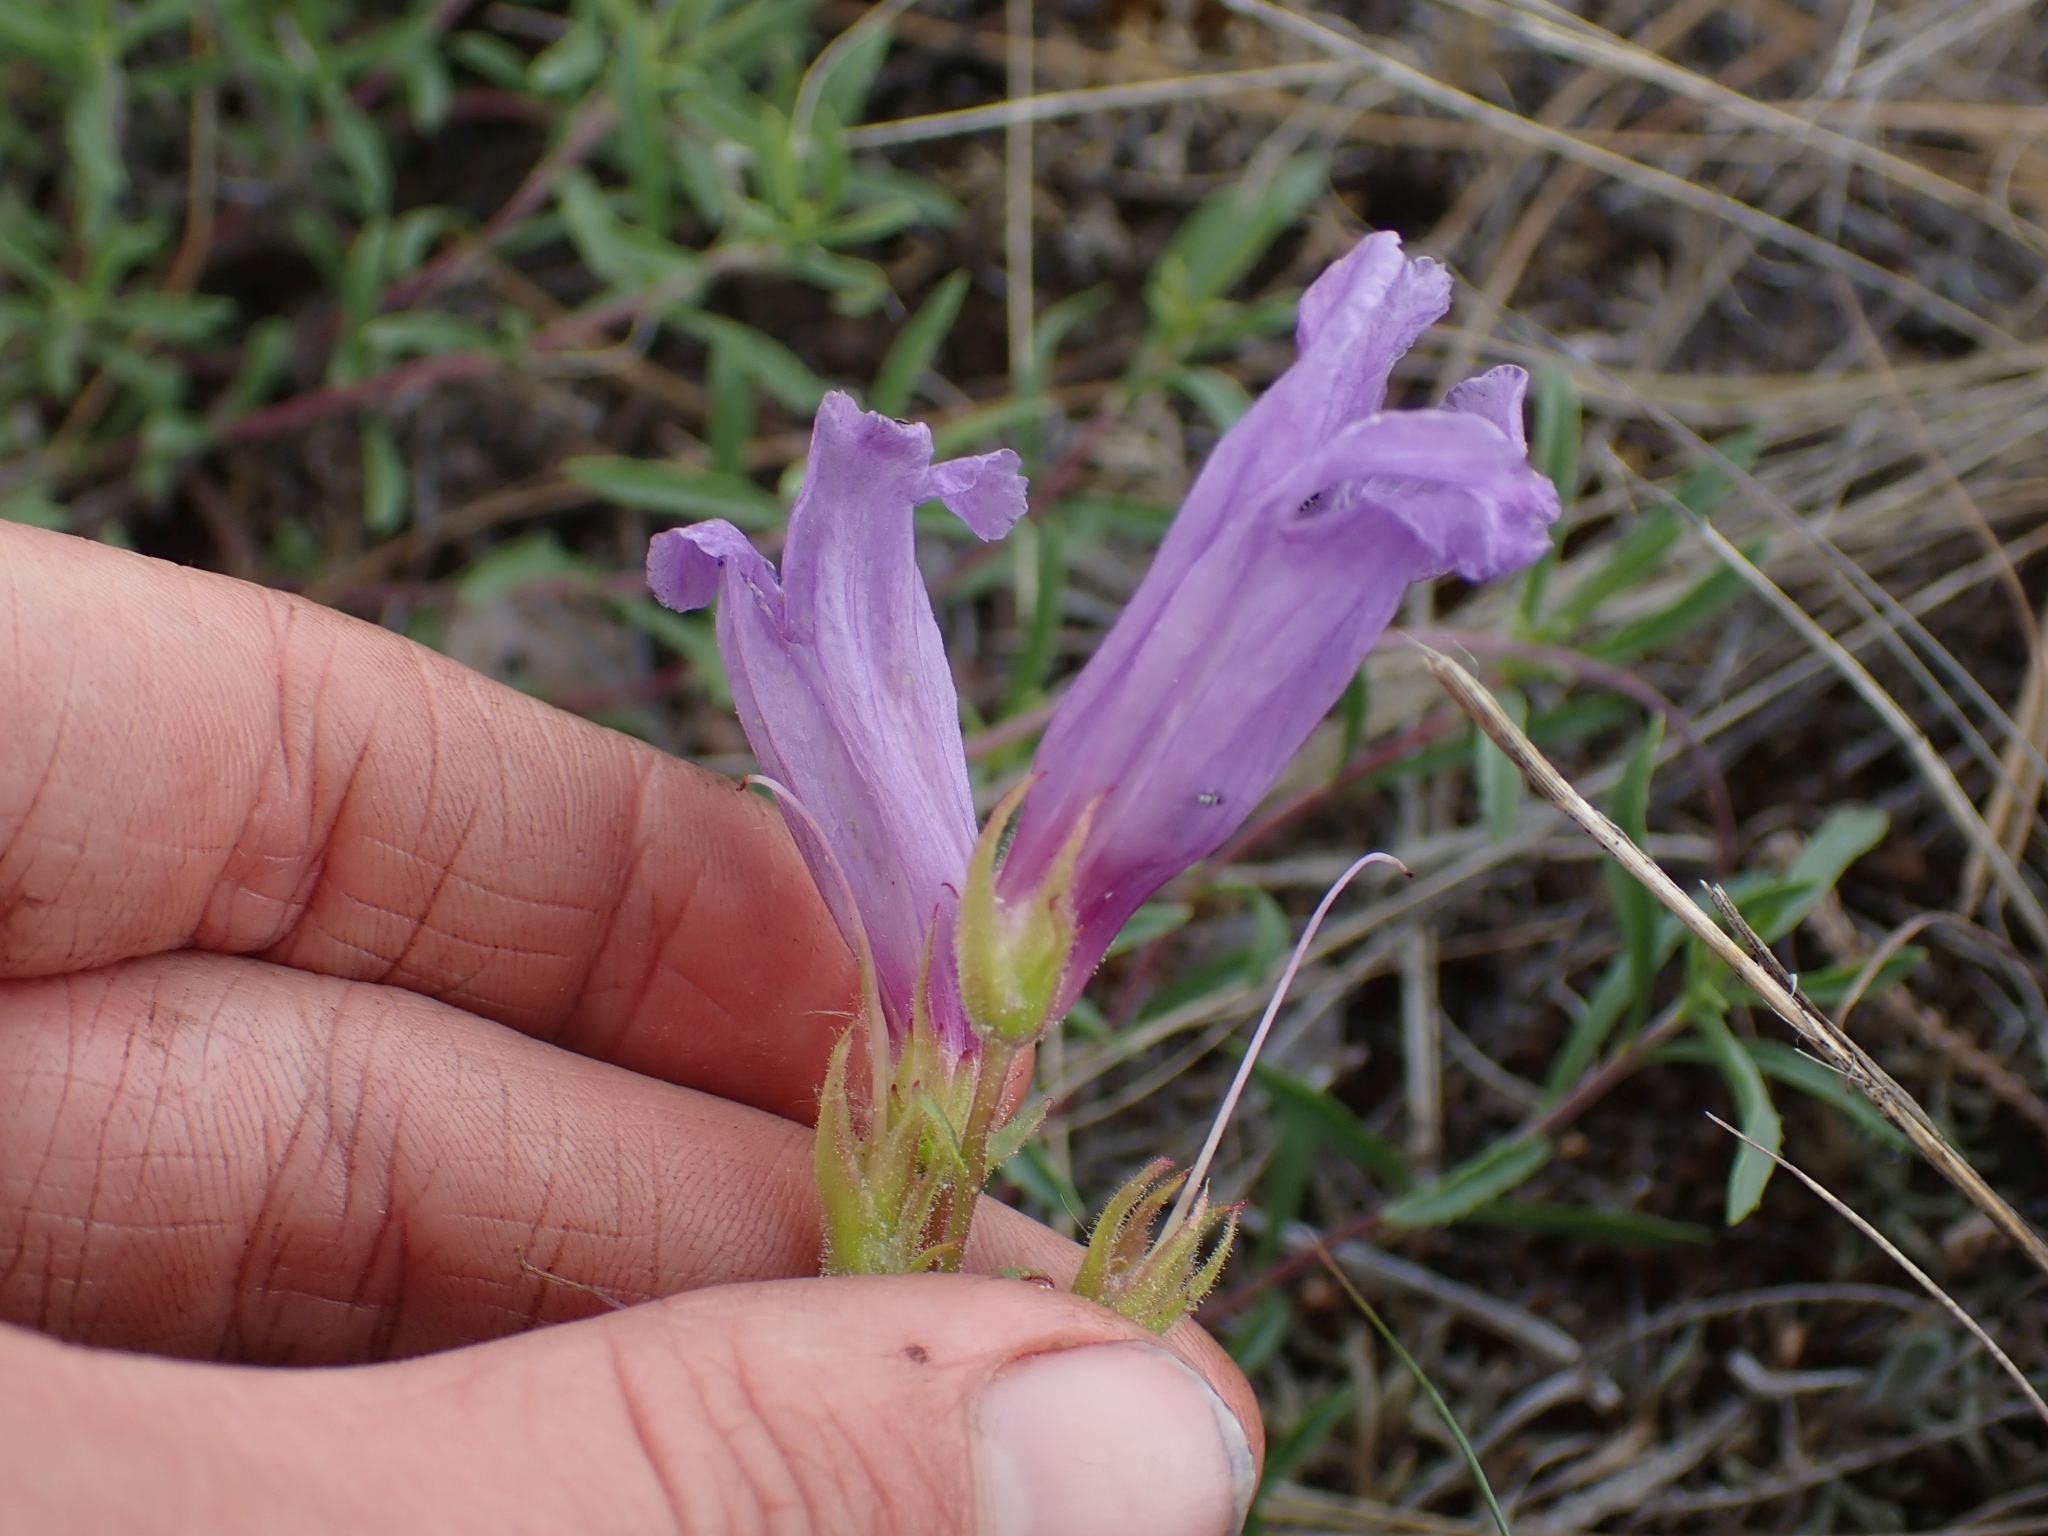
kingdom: Plantae
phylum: Tracheophyta
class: Magnoliopsida
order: Lamiales
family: Plantaginaceae
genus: Penstemon
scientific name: Penstemon fruticosus
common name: Bush penstemon
